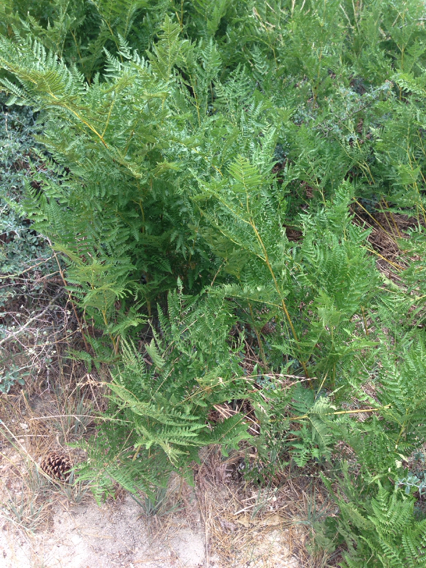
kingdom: Plantae
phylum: Tracheophyta
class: Polypodiopsida
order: Polypodiales
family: Dennstaedtiaceae
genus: Pteridium
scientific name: Pteridium aquilinum
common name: Bracken
